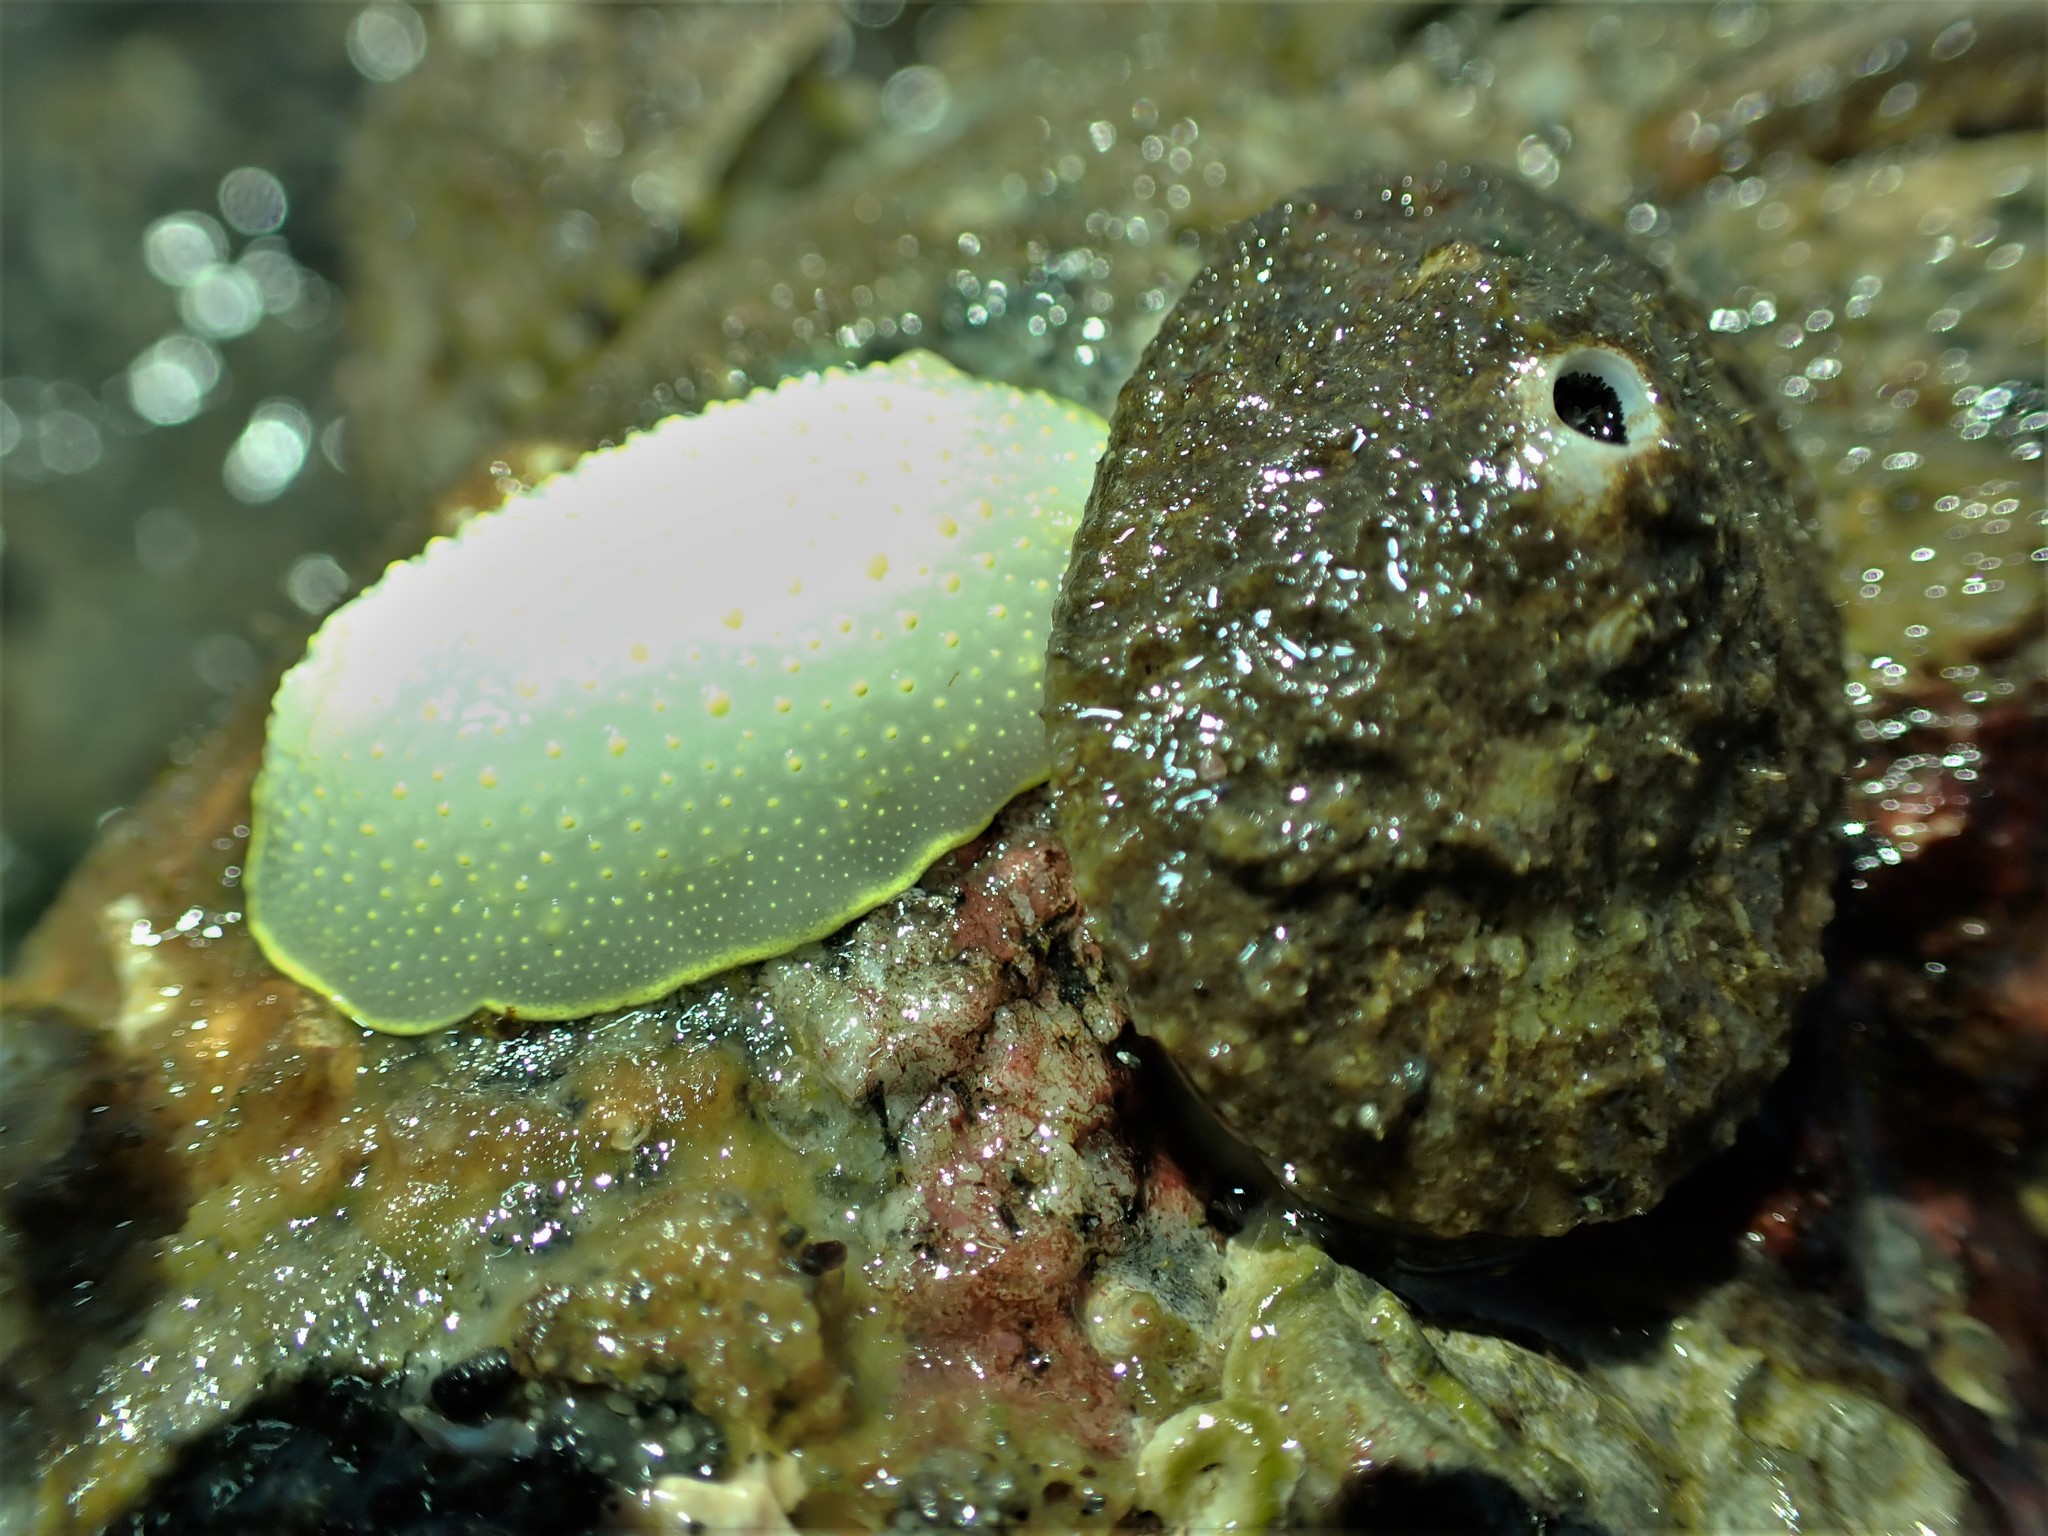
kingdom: Animalia
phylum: Mollusca
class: Gastropoda
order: Nudibranchia
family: Cadlinidae
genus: Cadlina
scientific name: Cadlina luteomarginata
